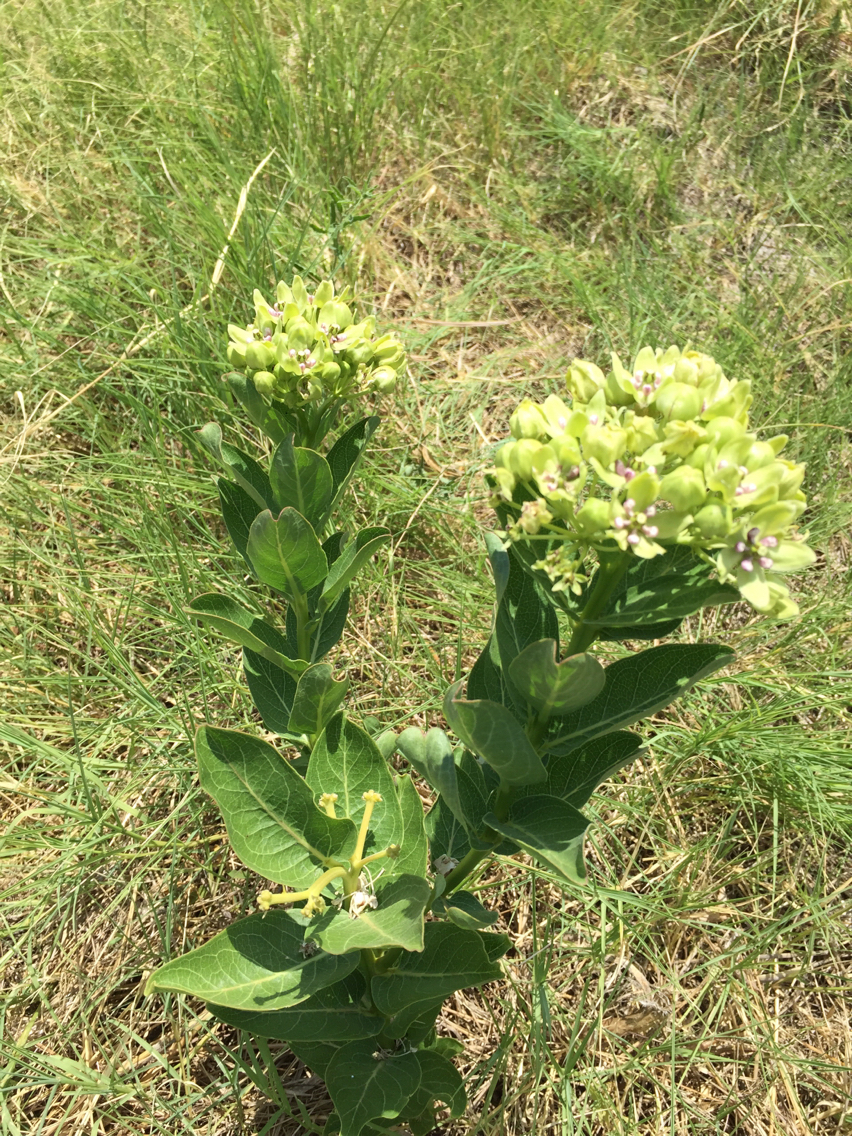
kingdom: Plantae
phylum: Tracheophyta
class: Magnoliopsida
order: Gentianales
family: Apocynaceae
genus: Asclepias
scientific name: Asclepias viridis
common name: Antelope-horns
